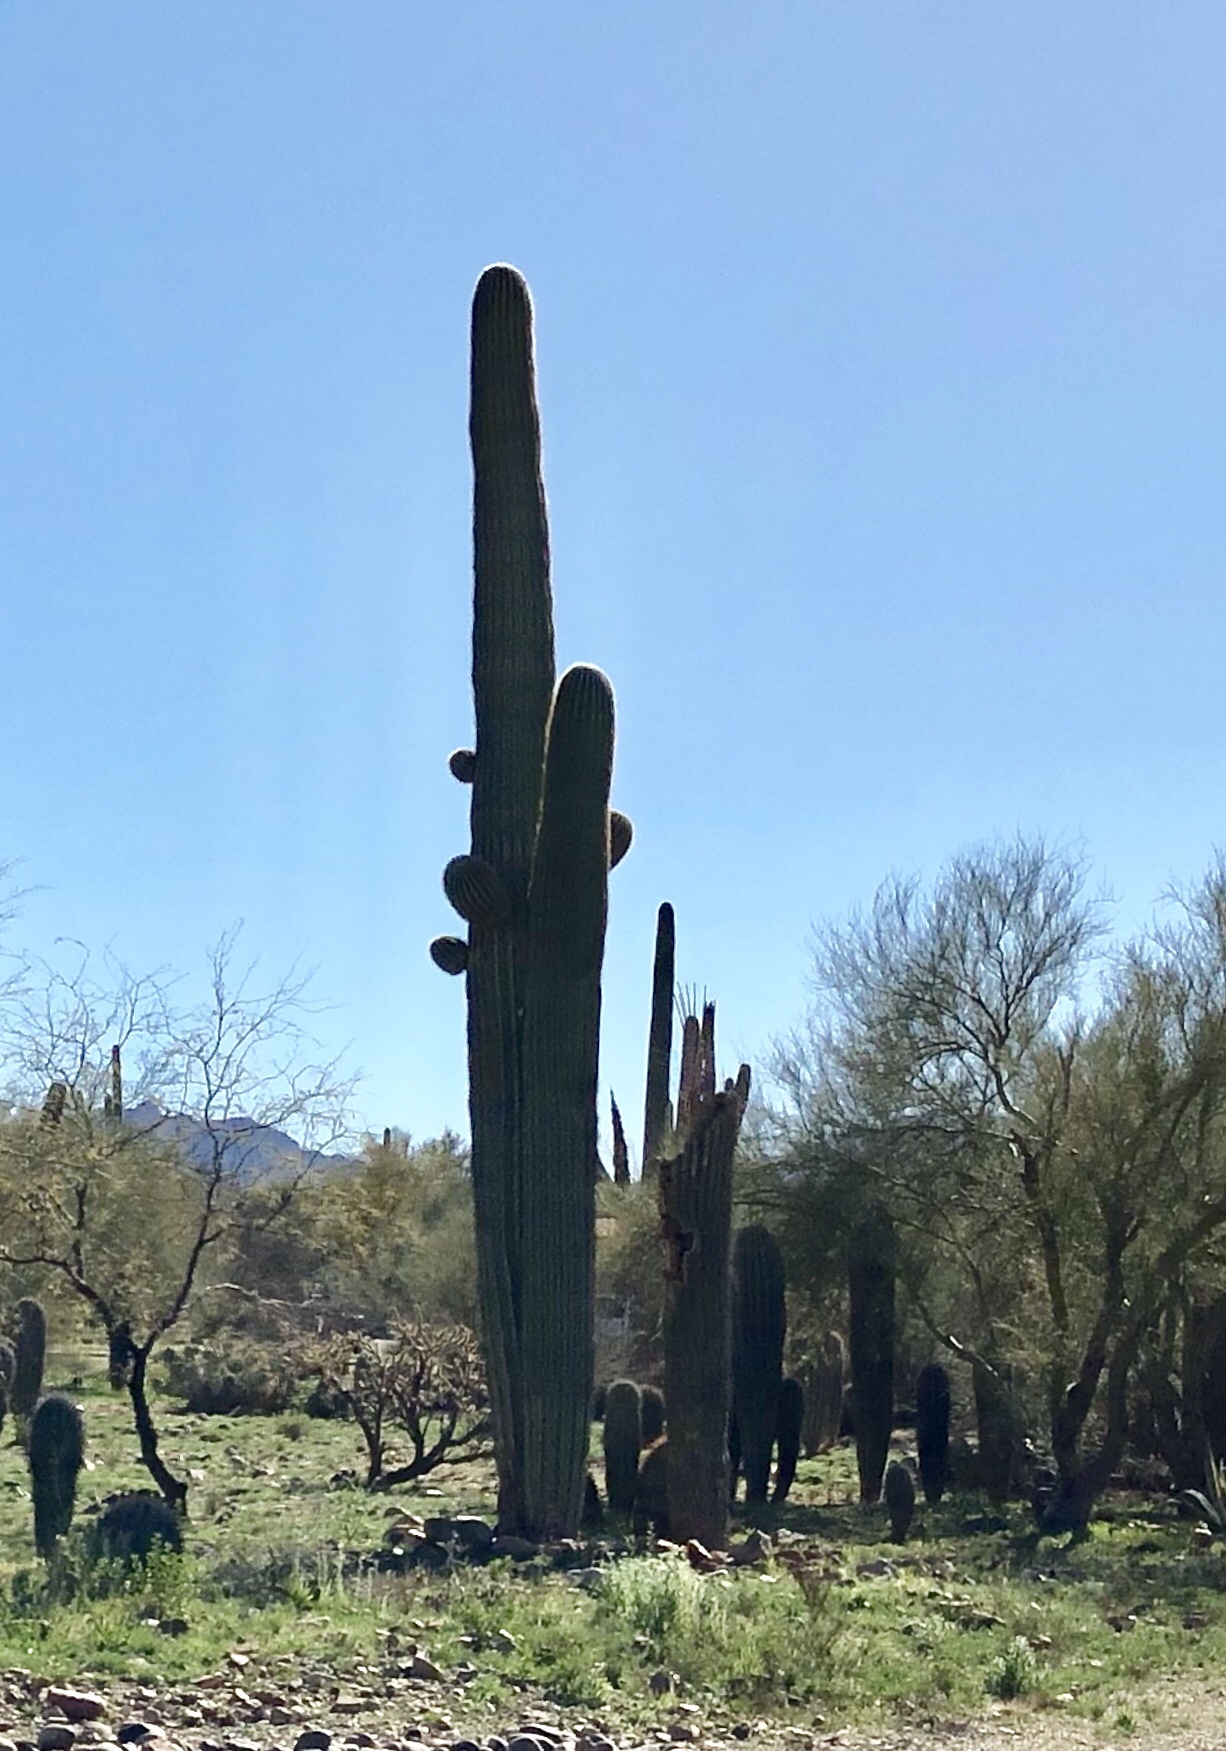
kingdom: Plantae
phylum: Tracheophyta
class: Magnoliopsida
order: Caryophyllales
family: Cactaceae
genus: Carnegiea
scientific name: Carnegiea gigantea
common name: Saguaro
